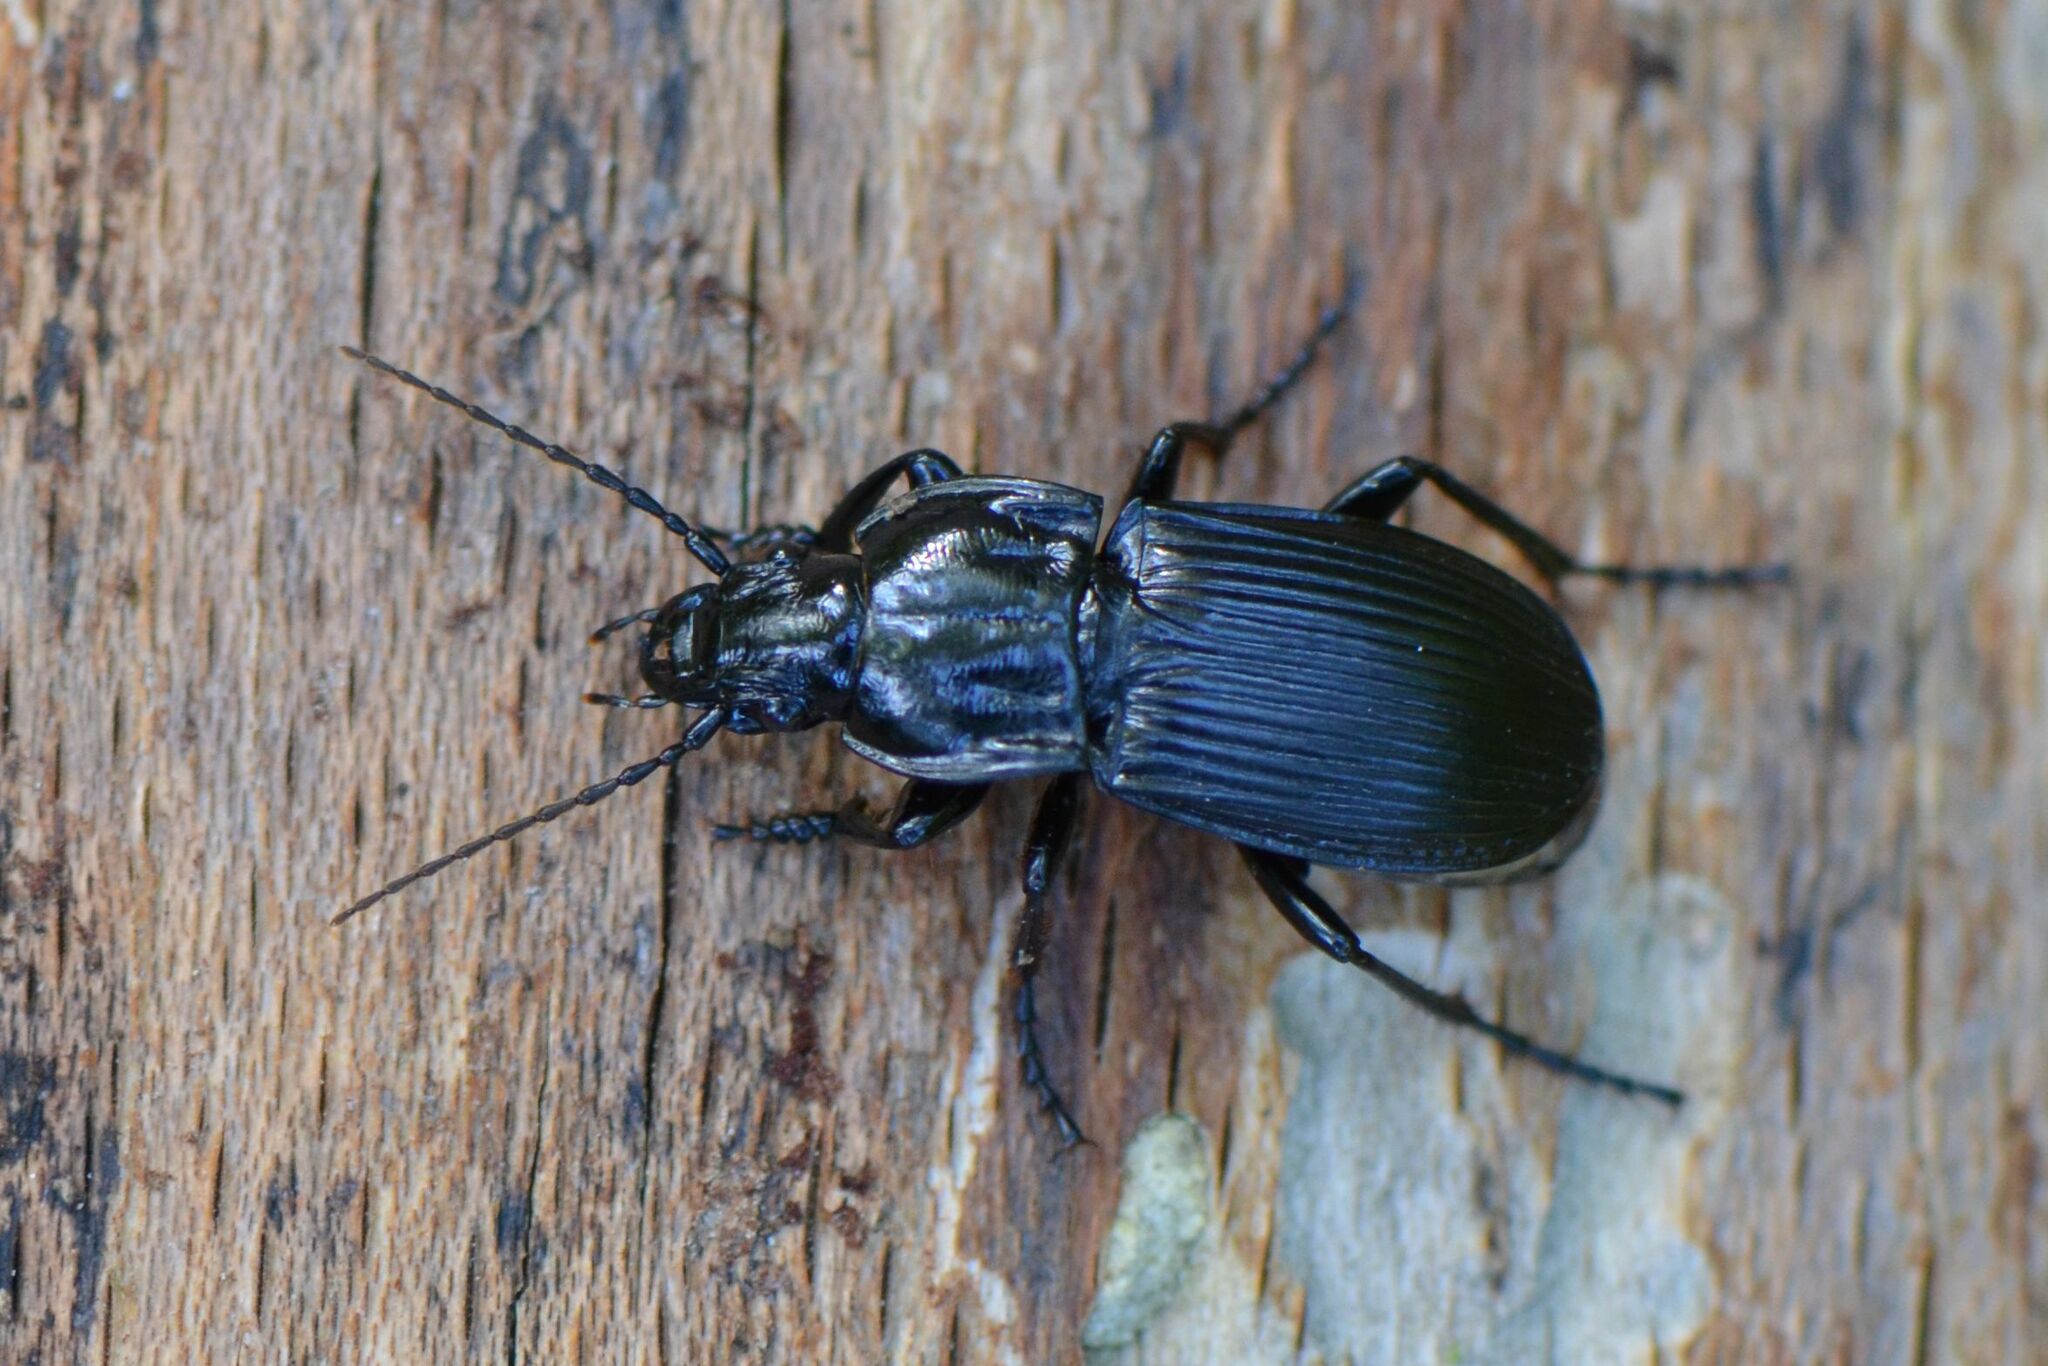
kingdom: Animalia
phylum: Arthropoda
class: Insecta
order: Coleoptera
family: Carabidae
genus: Abax
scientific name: Abax parallelepipedus
